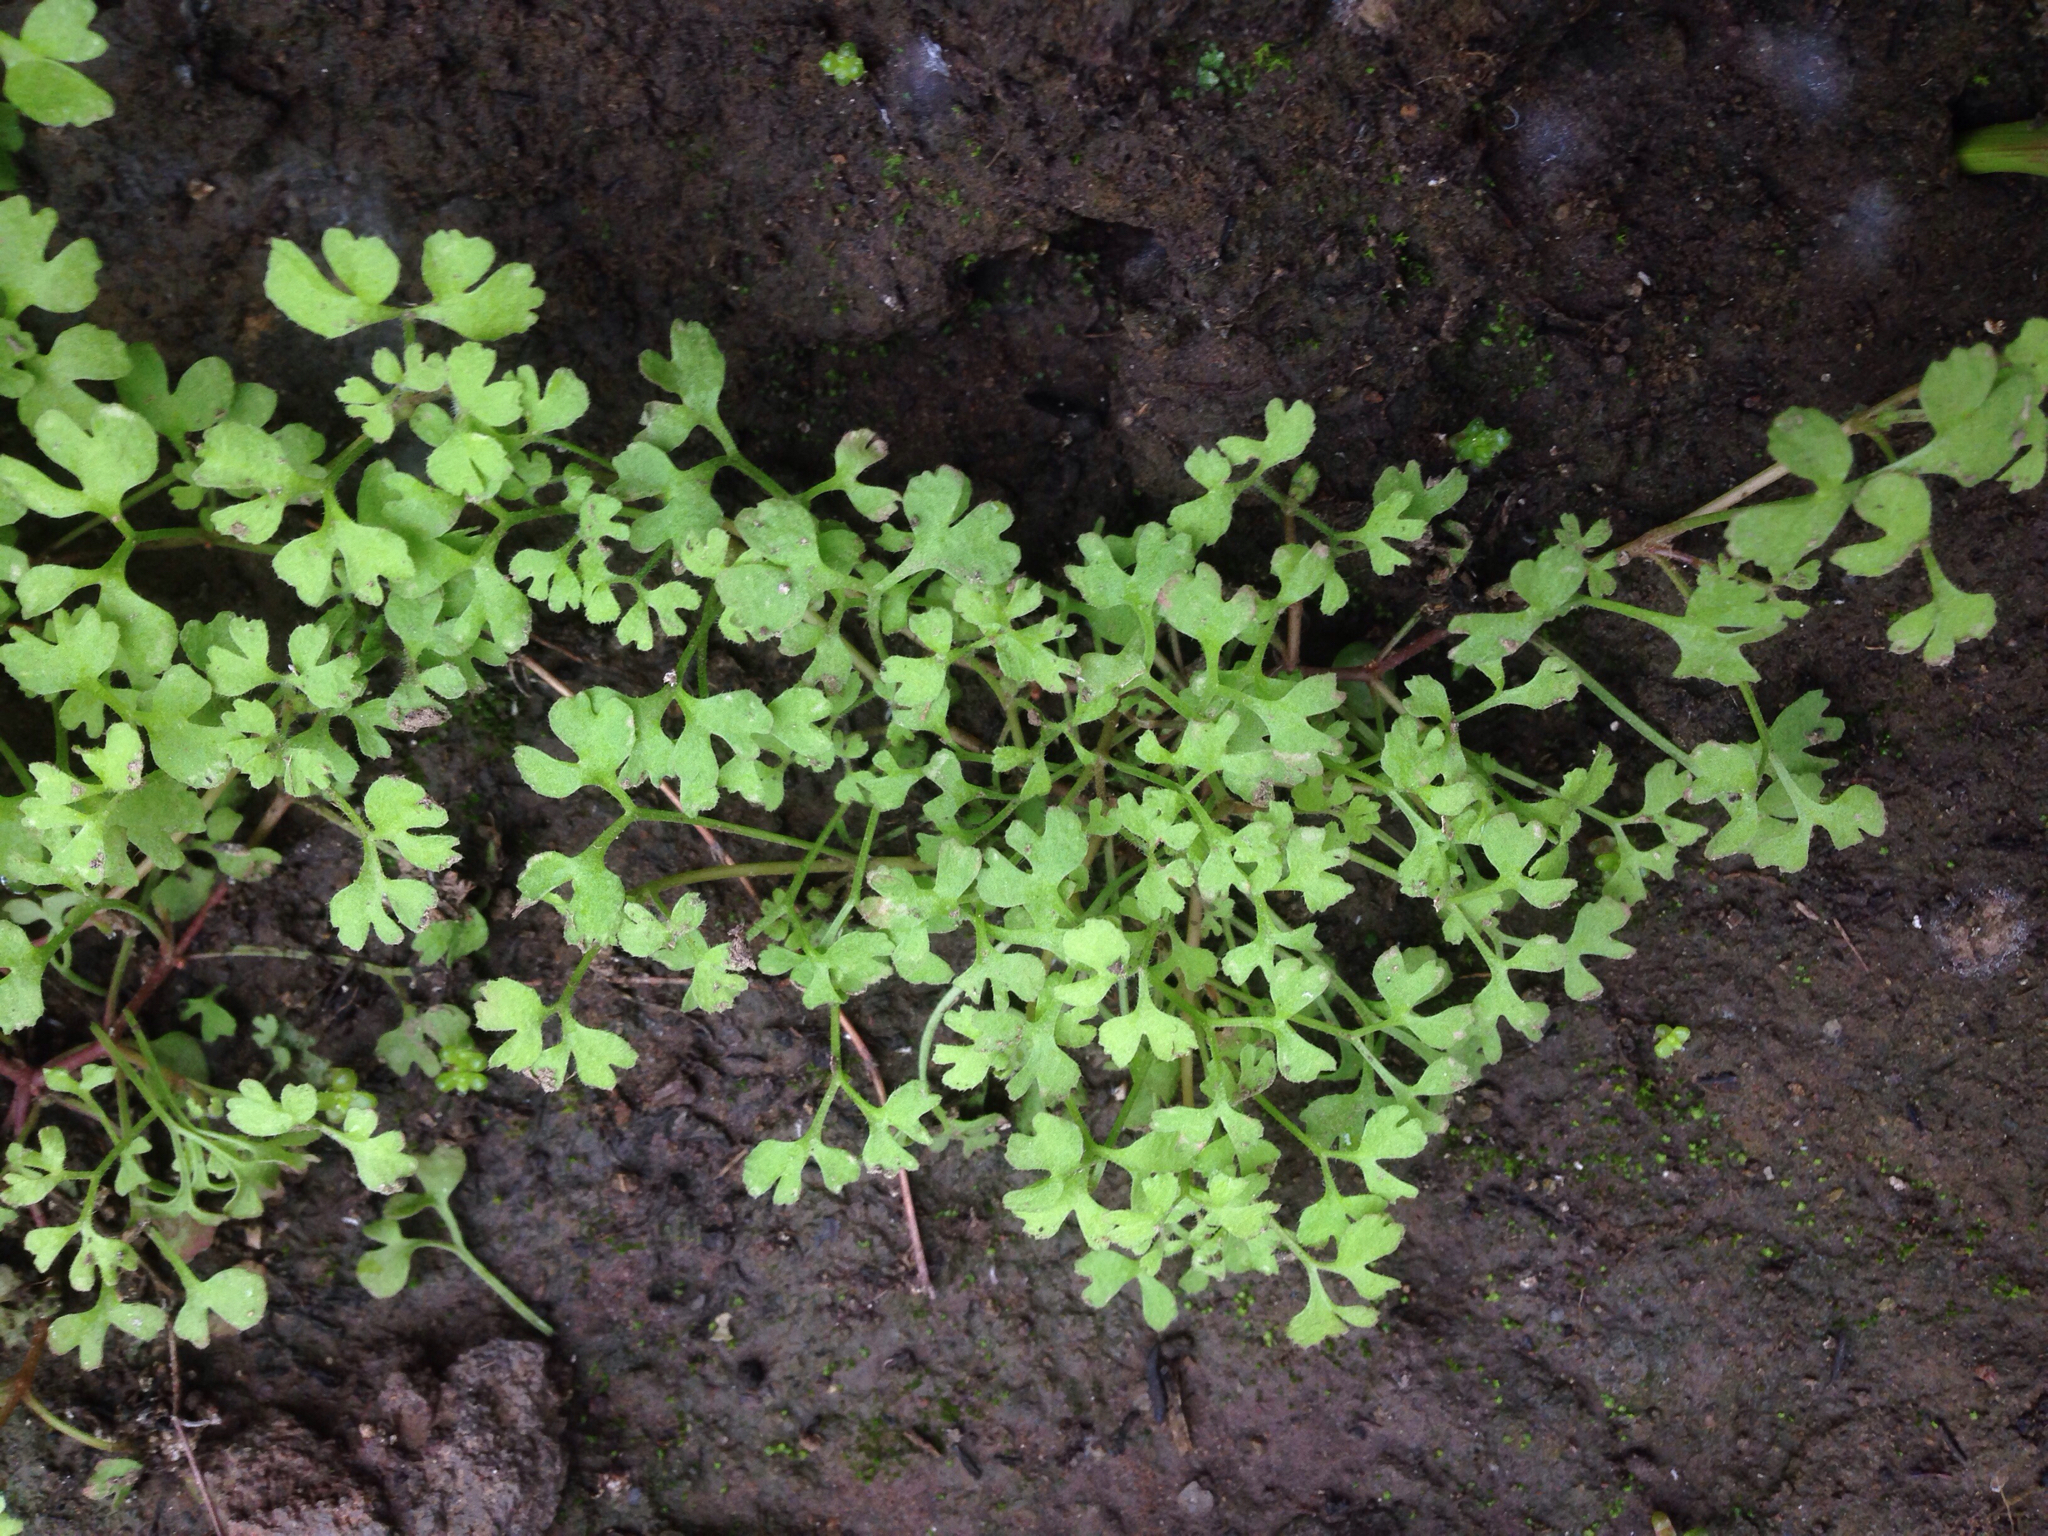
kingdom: Plantae
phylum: Tracheophyta
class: Magnoliopsida
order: Caryophyllales
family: Polygonaceae
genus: Pterostegia
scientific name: Pterostegia drymarioides
